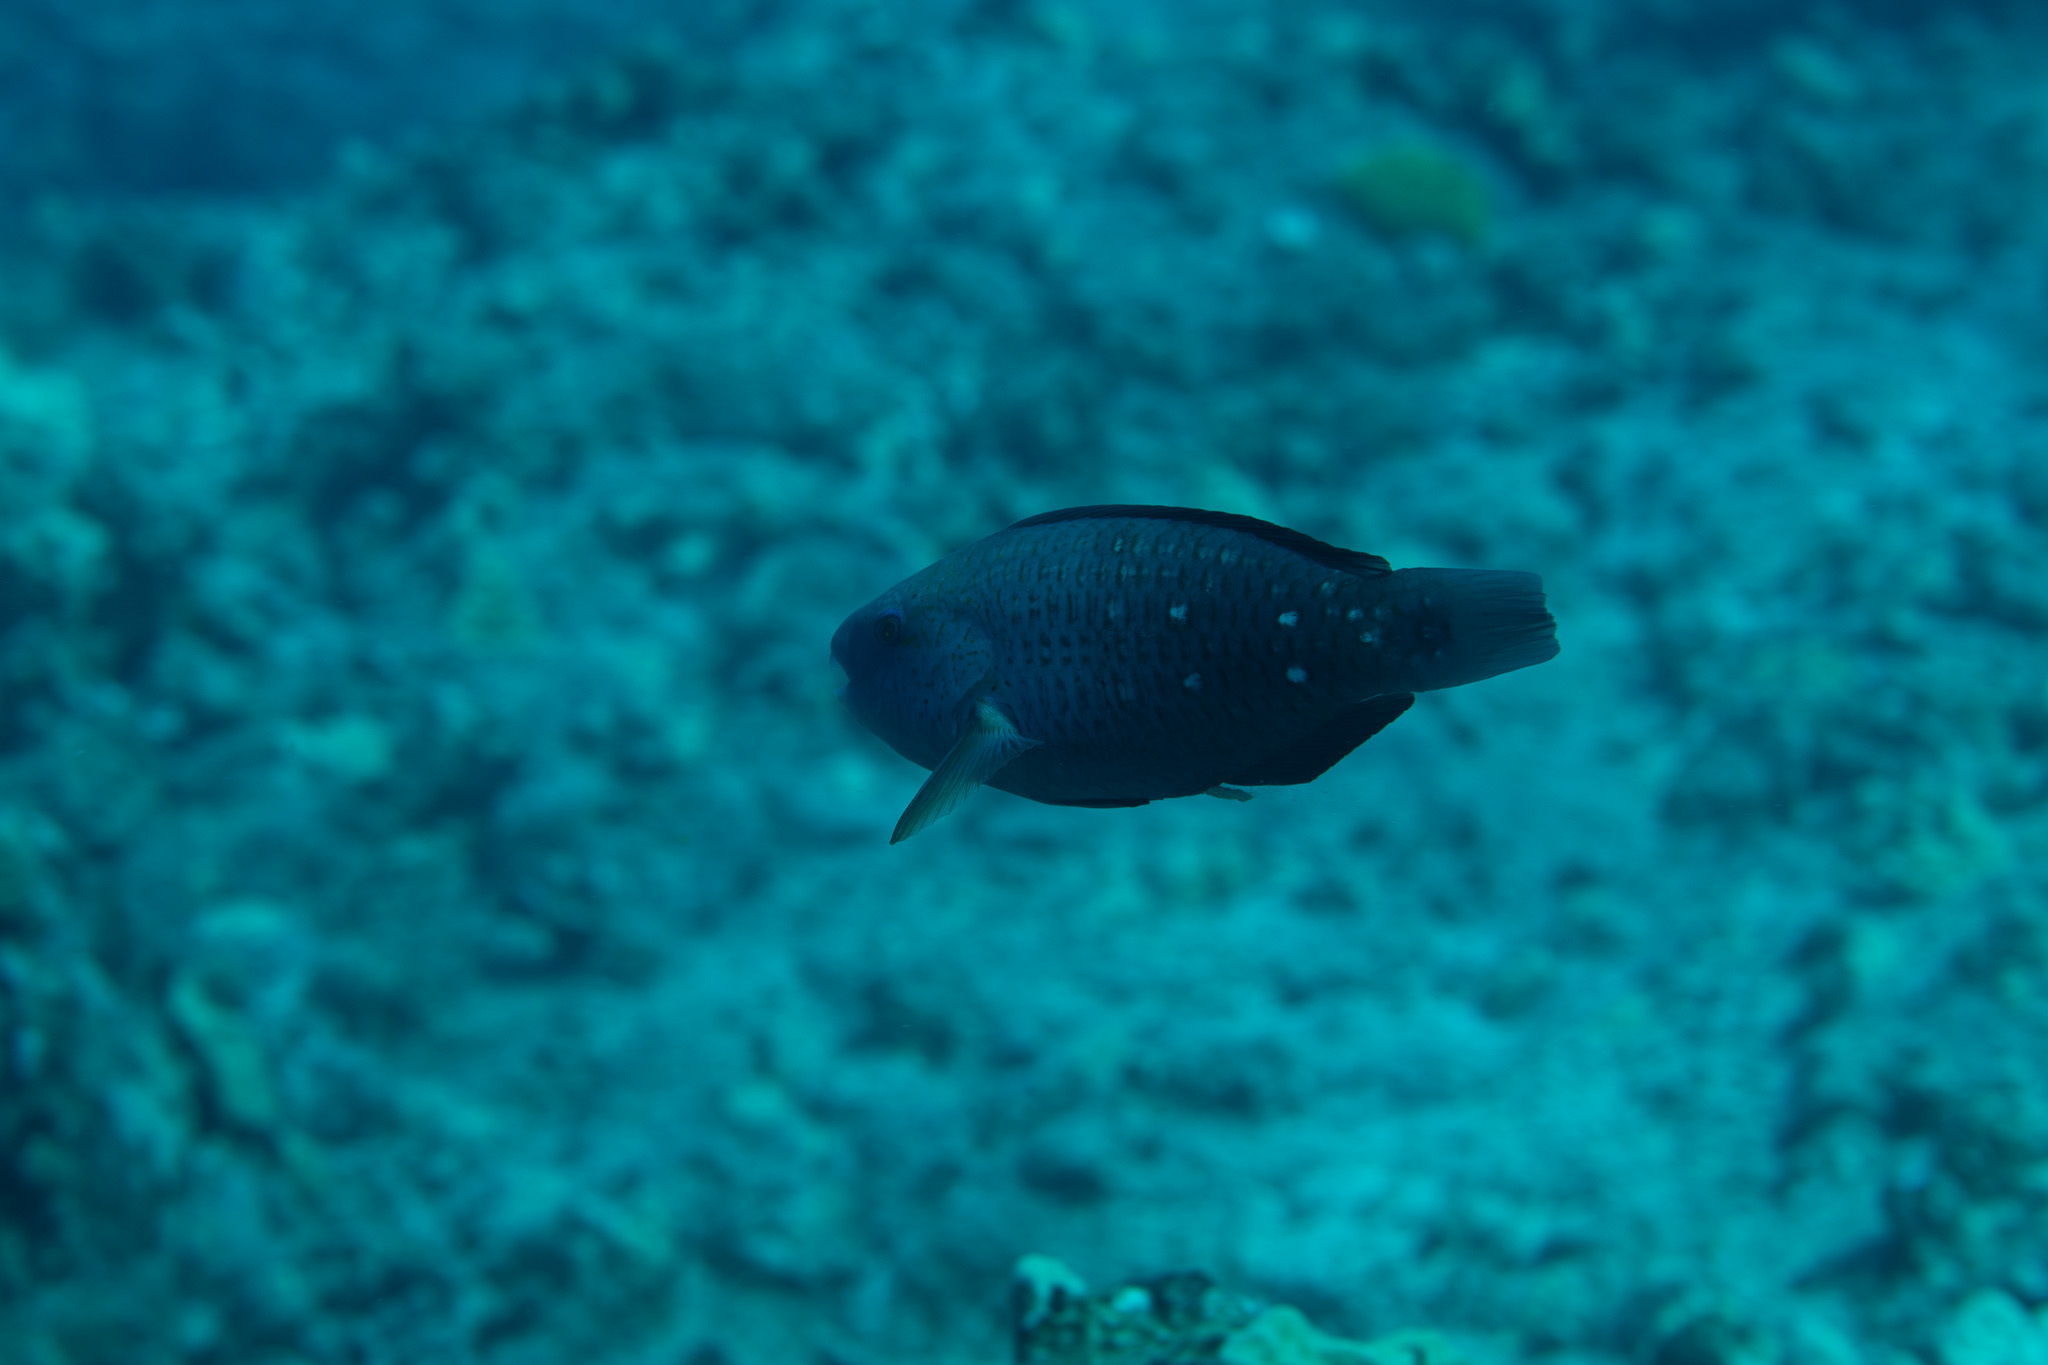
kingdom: Animalia
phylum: Chordata
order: Perciformes
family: Scaridae
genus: Chlorurus
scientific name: Chlorurus spilurus
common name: Bullethead parrotfish
